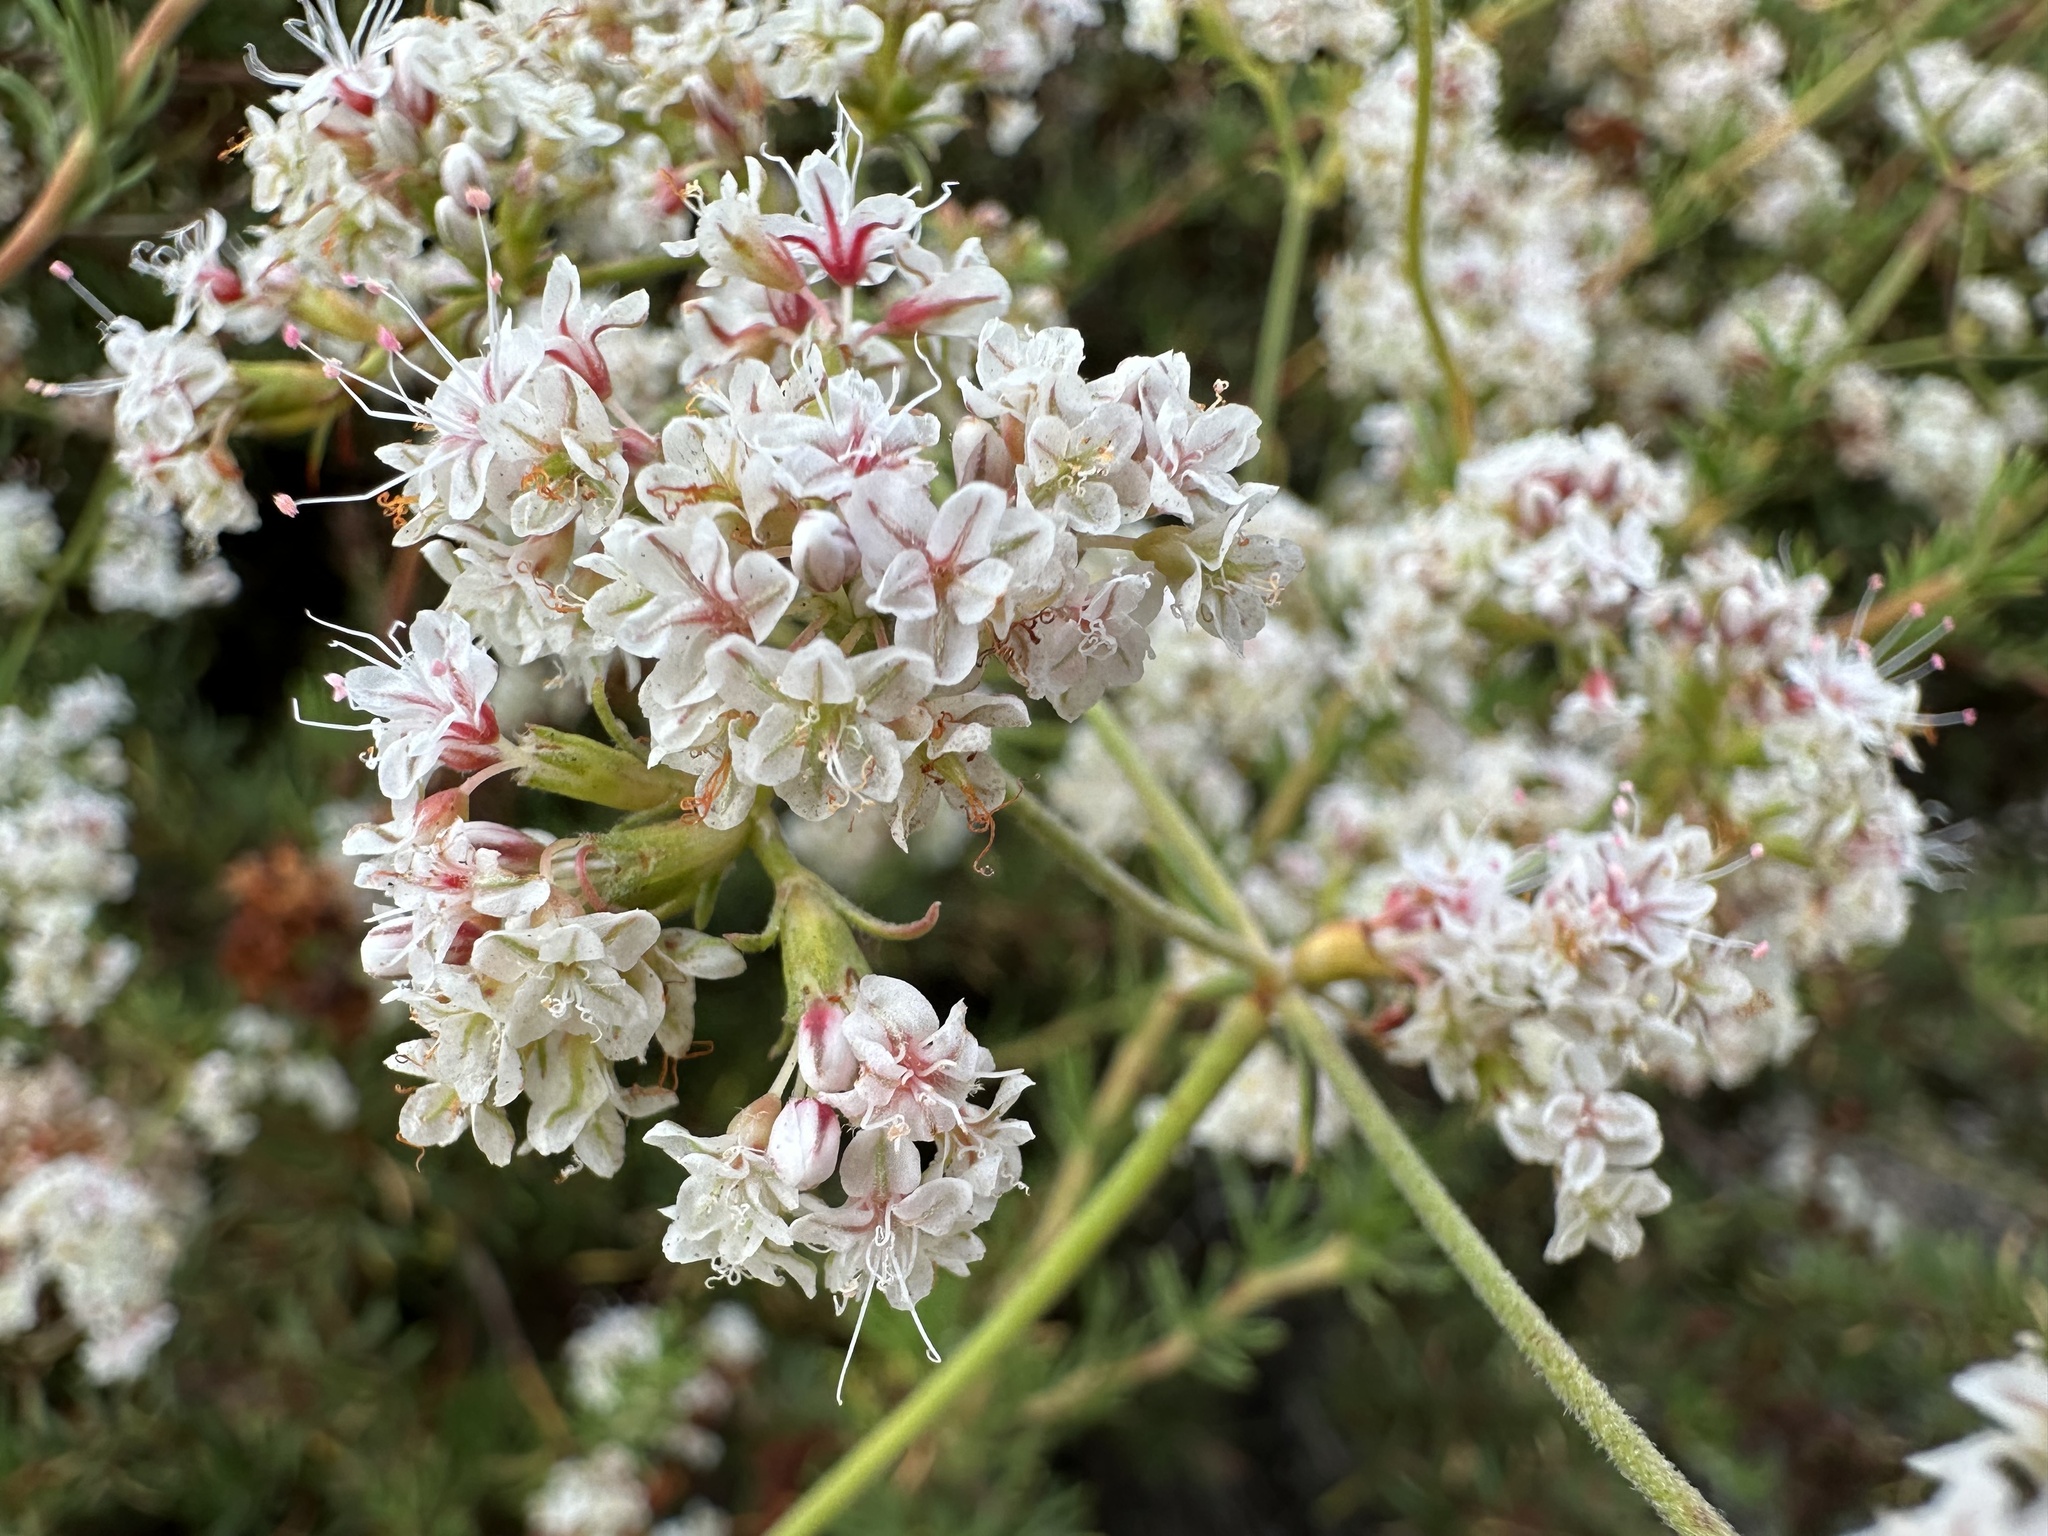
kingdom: Plantae
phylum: Tracheophyta
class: Magnoliopsida
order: Caryophyllales
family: Polygonaceae
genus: Eriogonum
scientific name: Eriogonum fasciculatum
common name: California wild buckwheat
